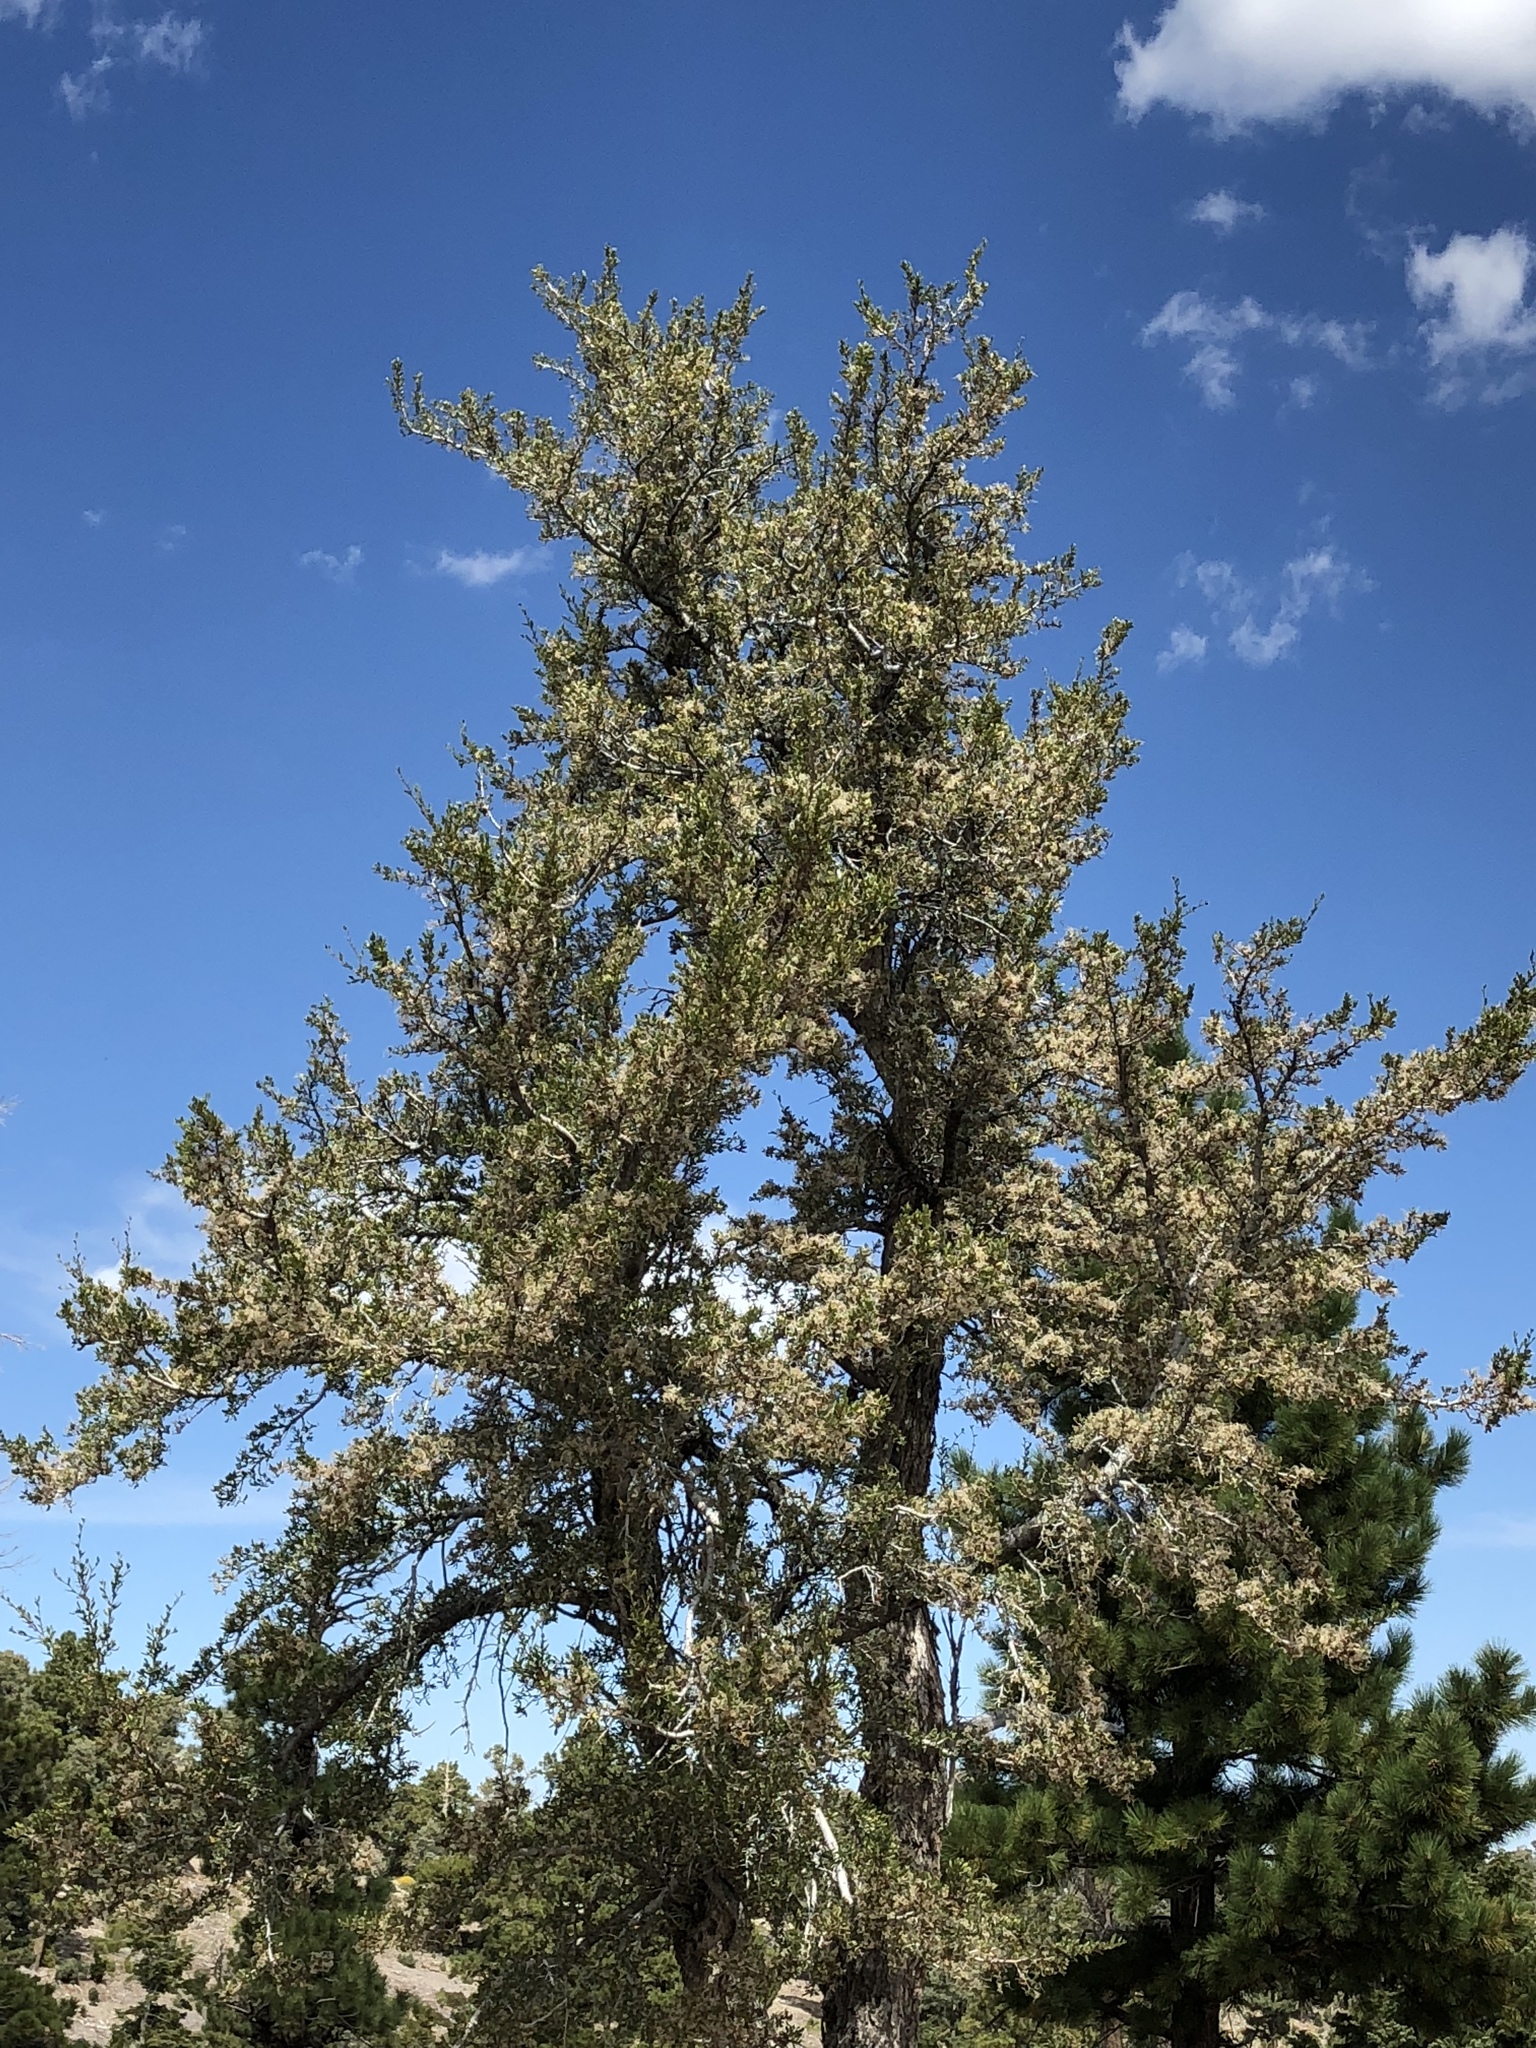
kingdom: Plantae
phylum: Tracheophyta
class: Magnoliopsida
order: Rosales
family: Rosaceae
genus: Cercocarpus
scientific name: Cercocarpus ledifolius
